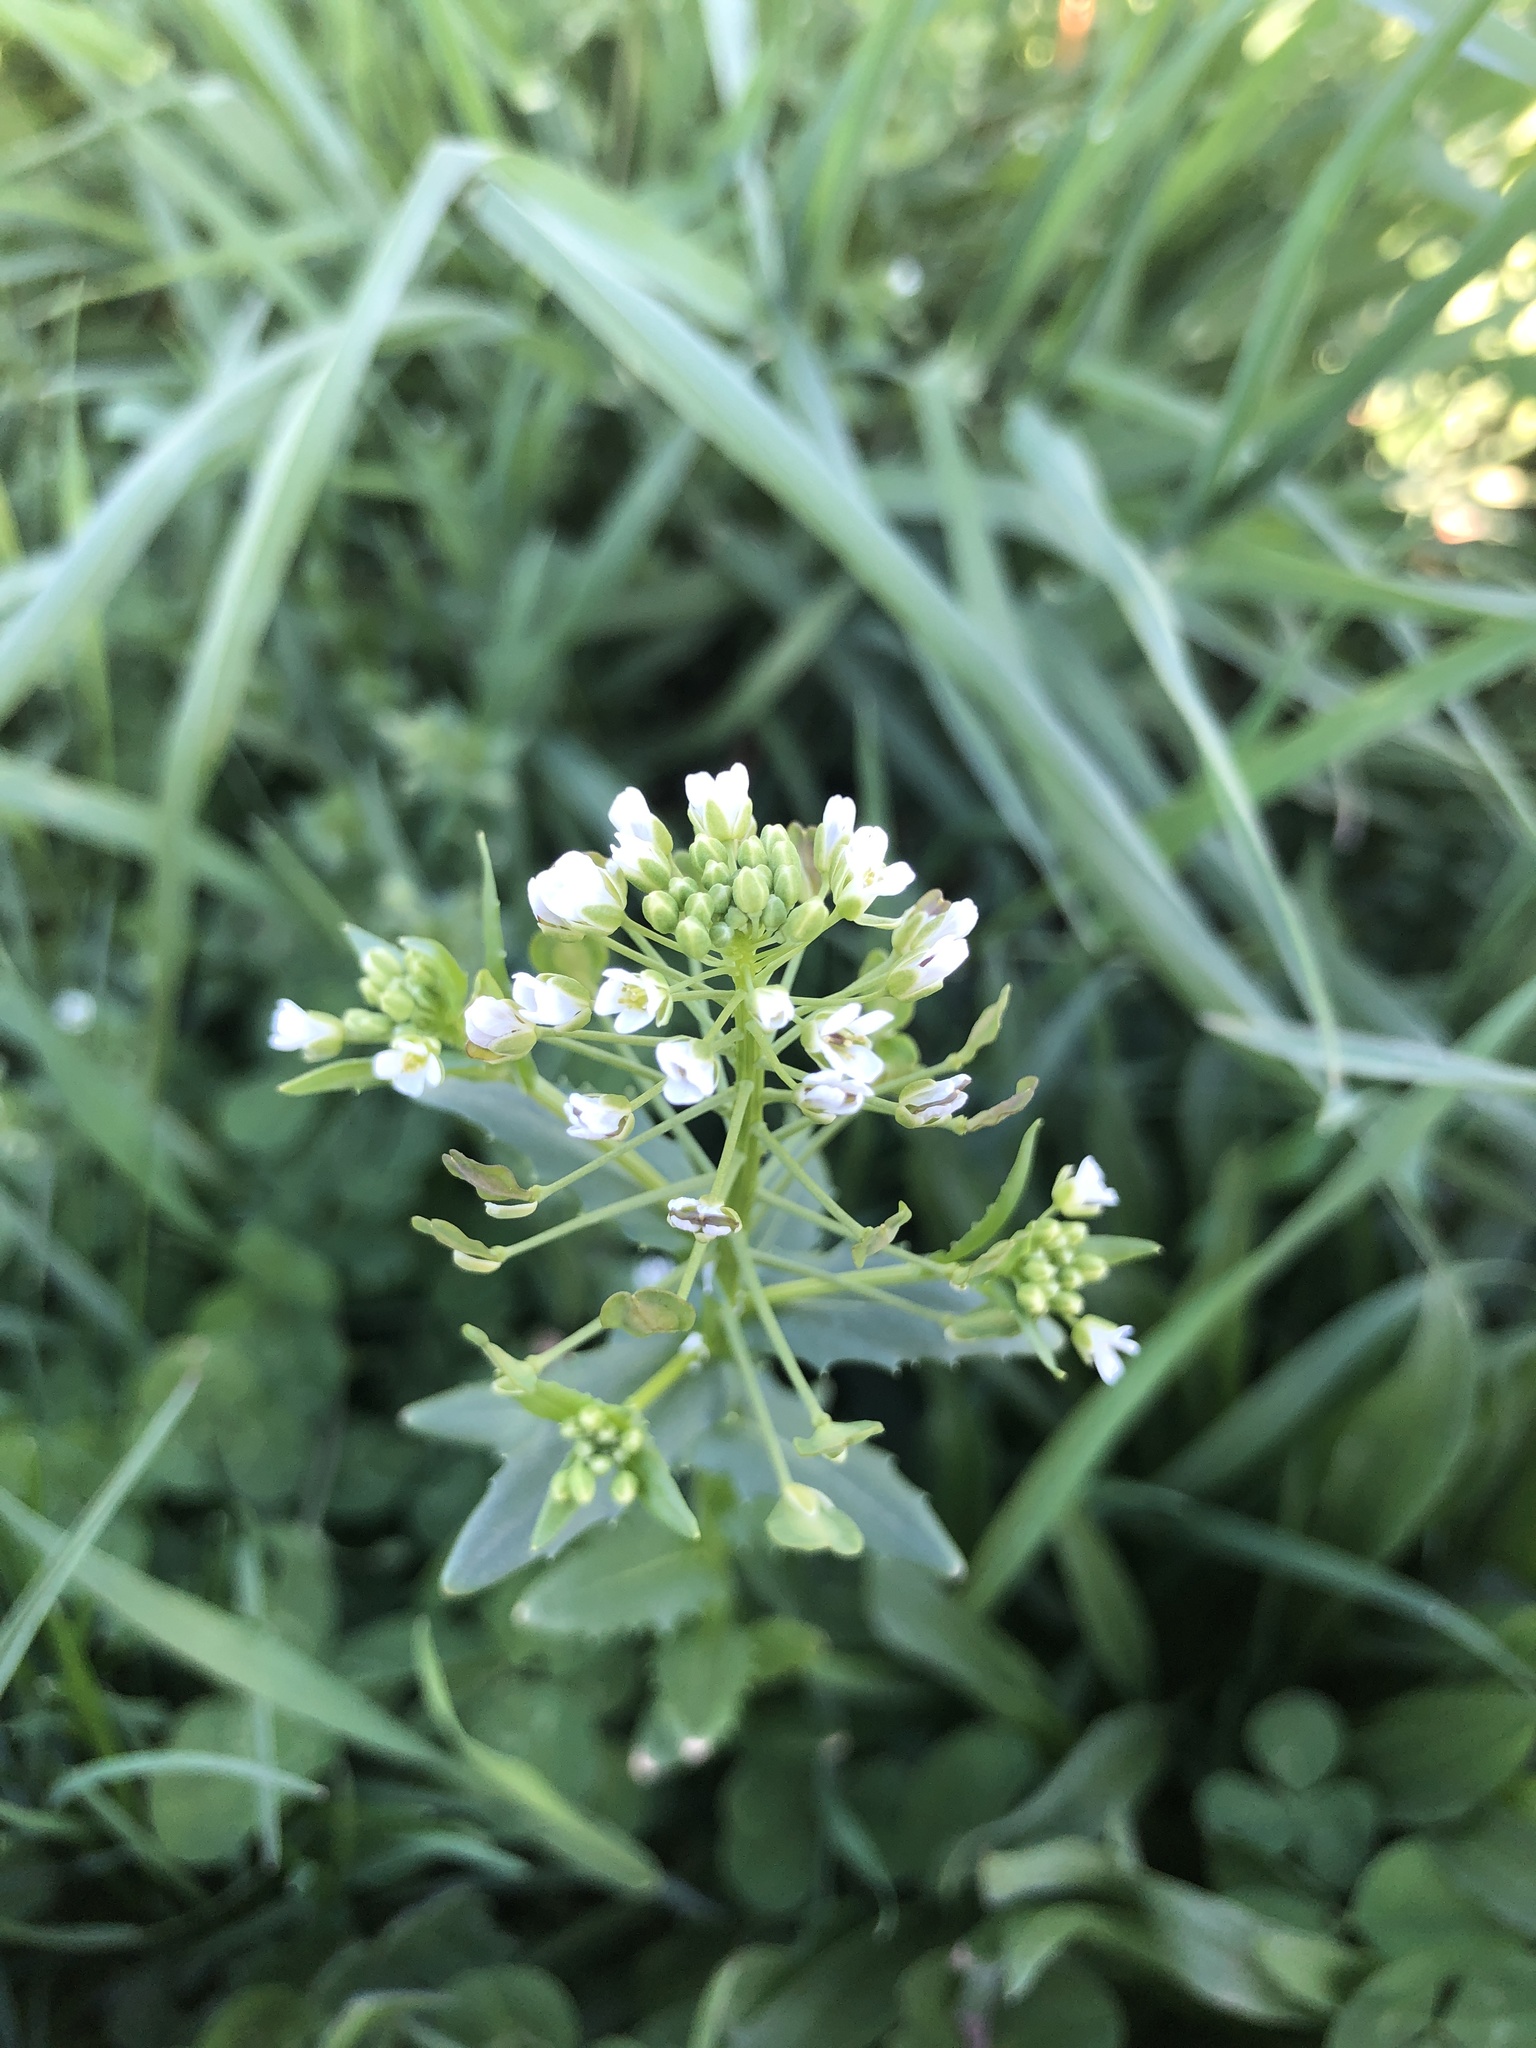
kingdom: Plantae
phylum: Tracheophyta
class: Magnoliopsida
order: Brassicales
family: Brassicaceae
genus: Thlaspi
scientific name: Thlaspi arvense
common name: Field pennycress
